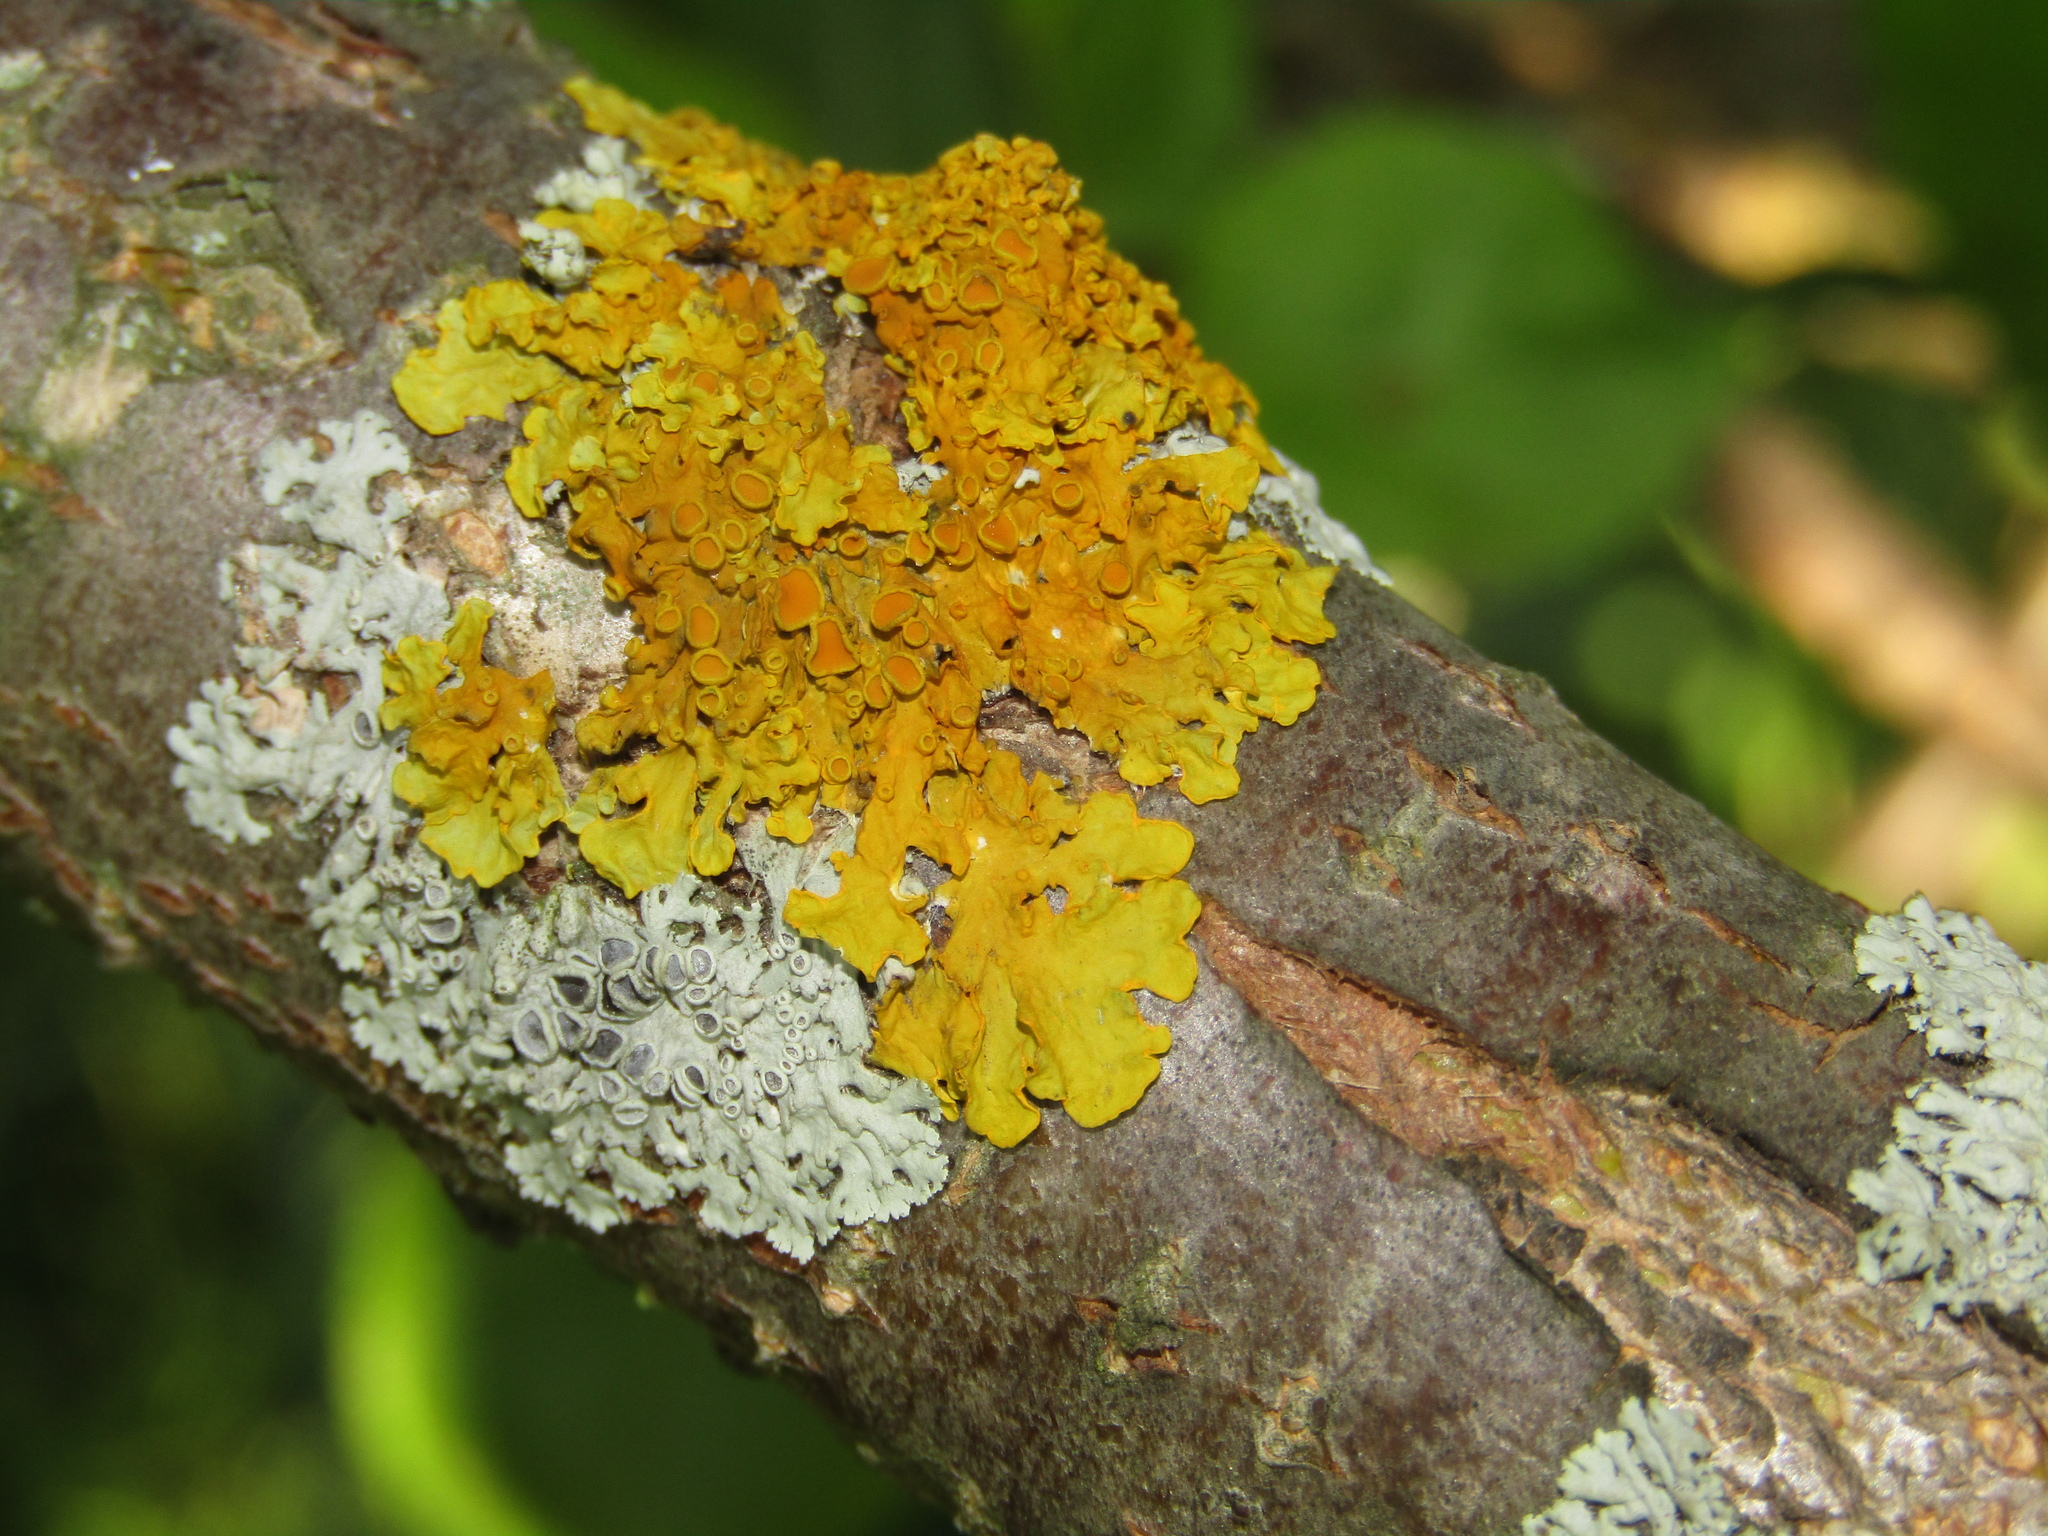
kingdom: Fungi
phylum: Ascomycota
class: Lecanoromycetes
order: Teloschistales
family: Teloschistaceae
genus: Xanthoria
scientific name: Xanthoria parietina
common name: Common orange lichen
